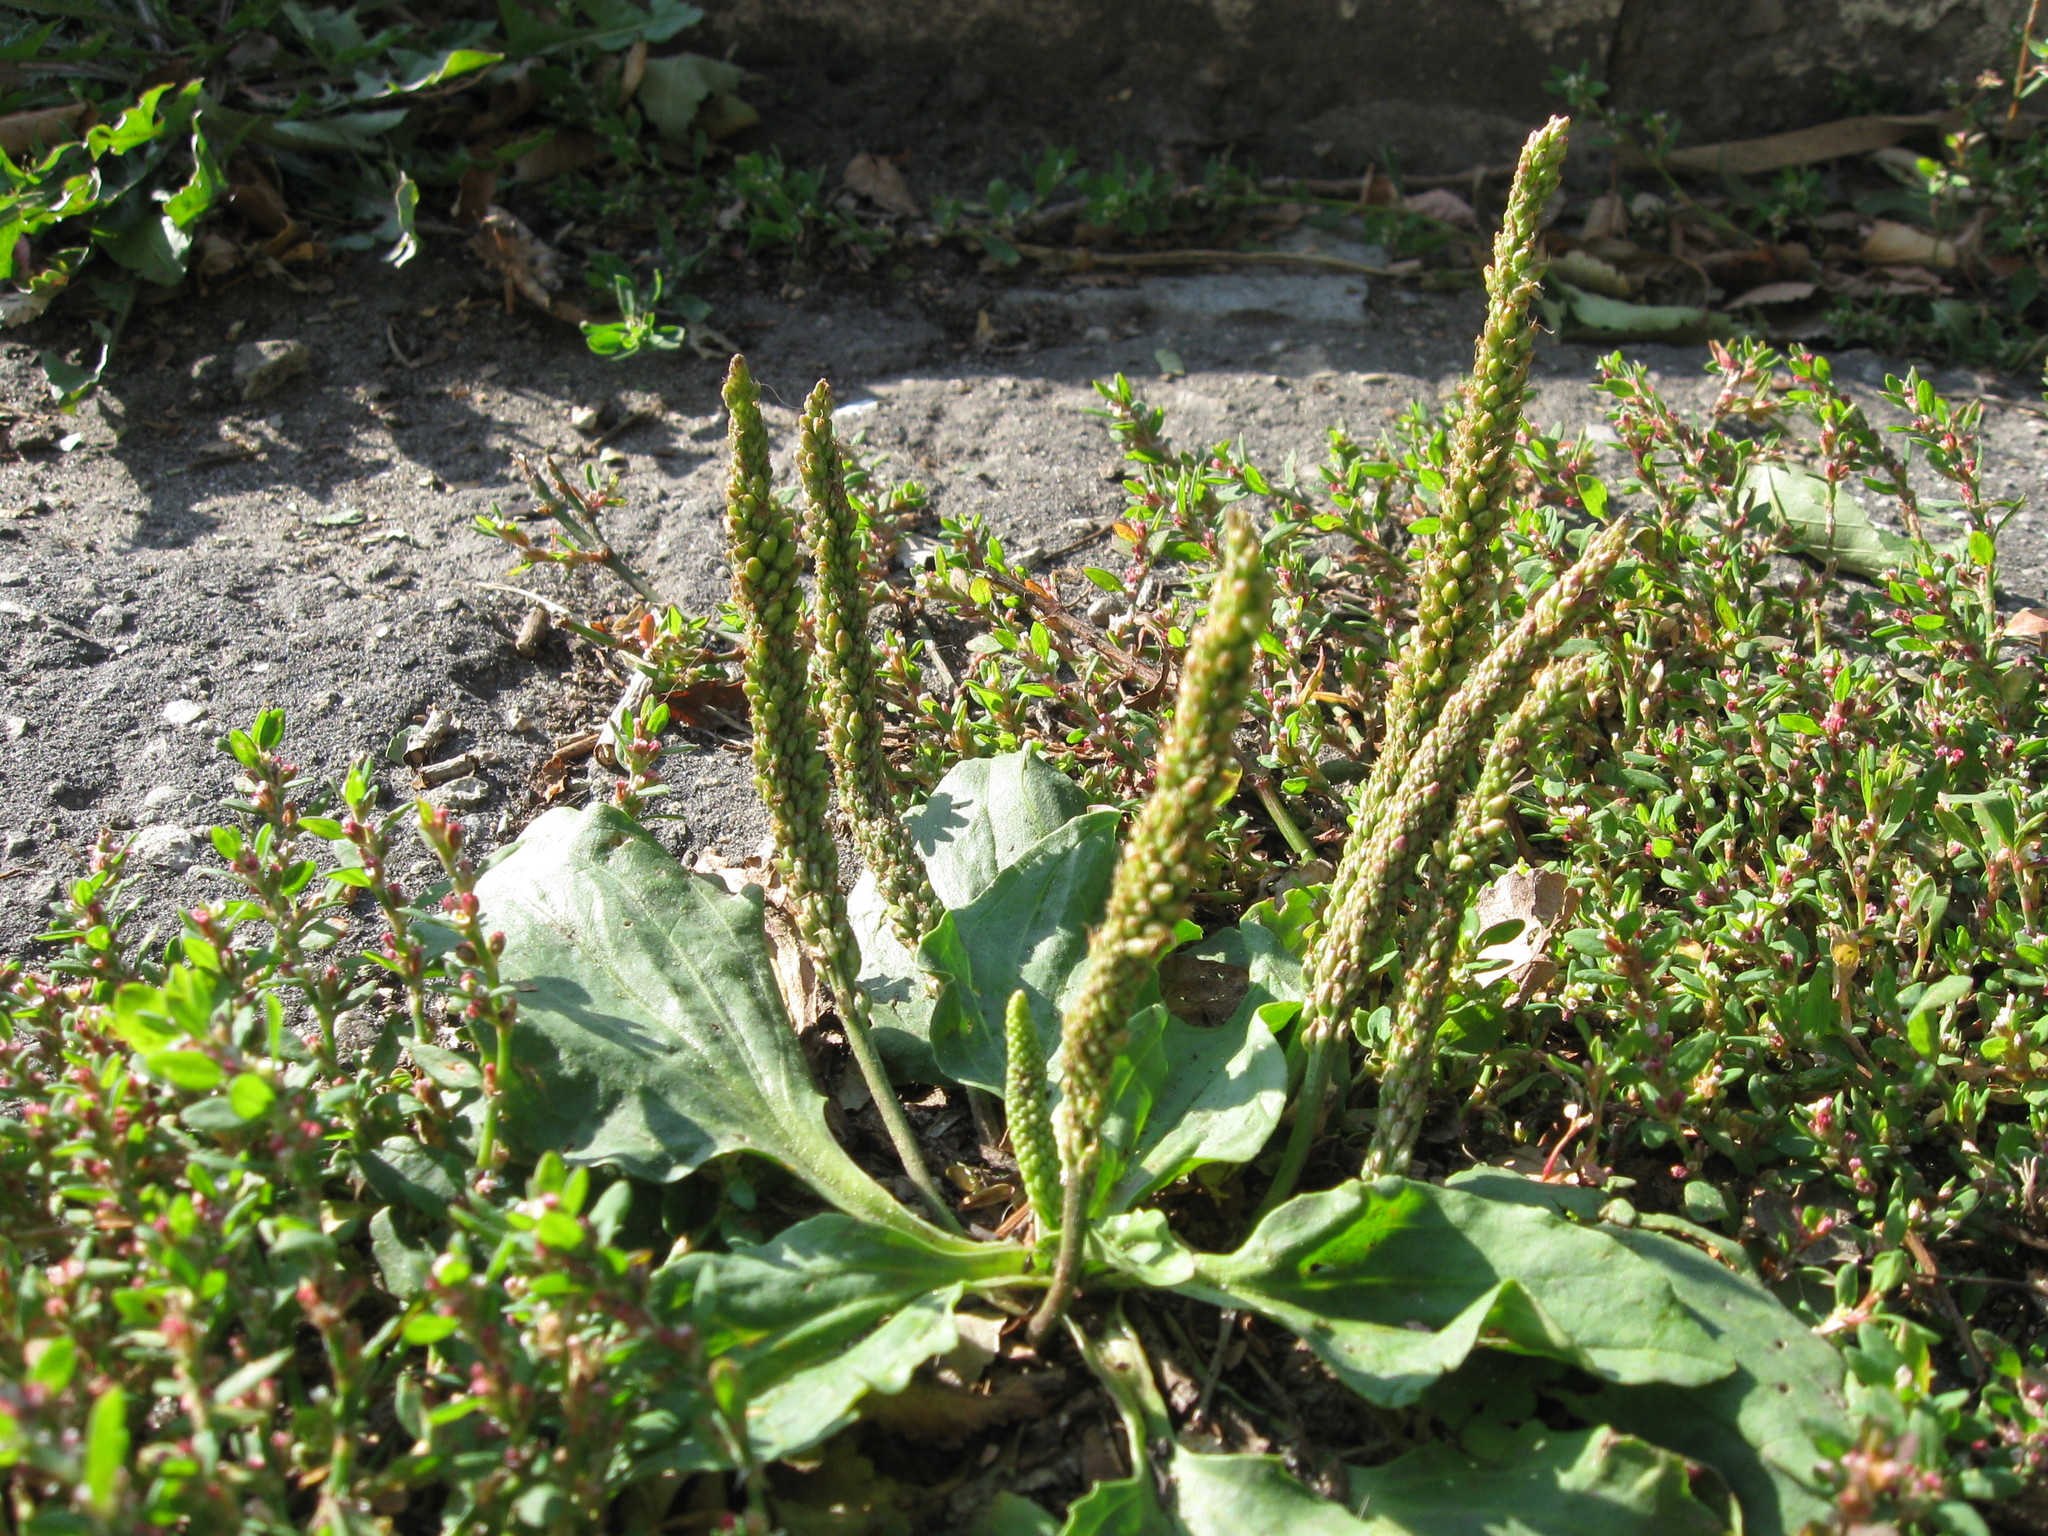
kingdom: Plantae
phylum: Tracheophyta
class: Magnoliopsida
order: Lamiales
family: Plantaginaceae
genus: Plantago
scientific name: Plantago major
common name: Common plantain
